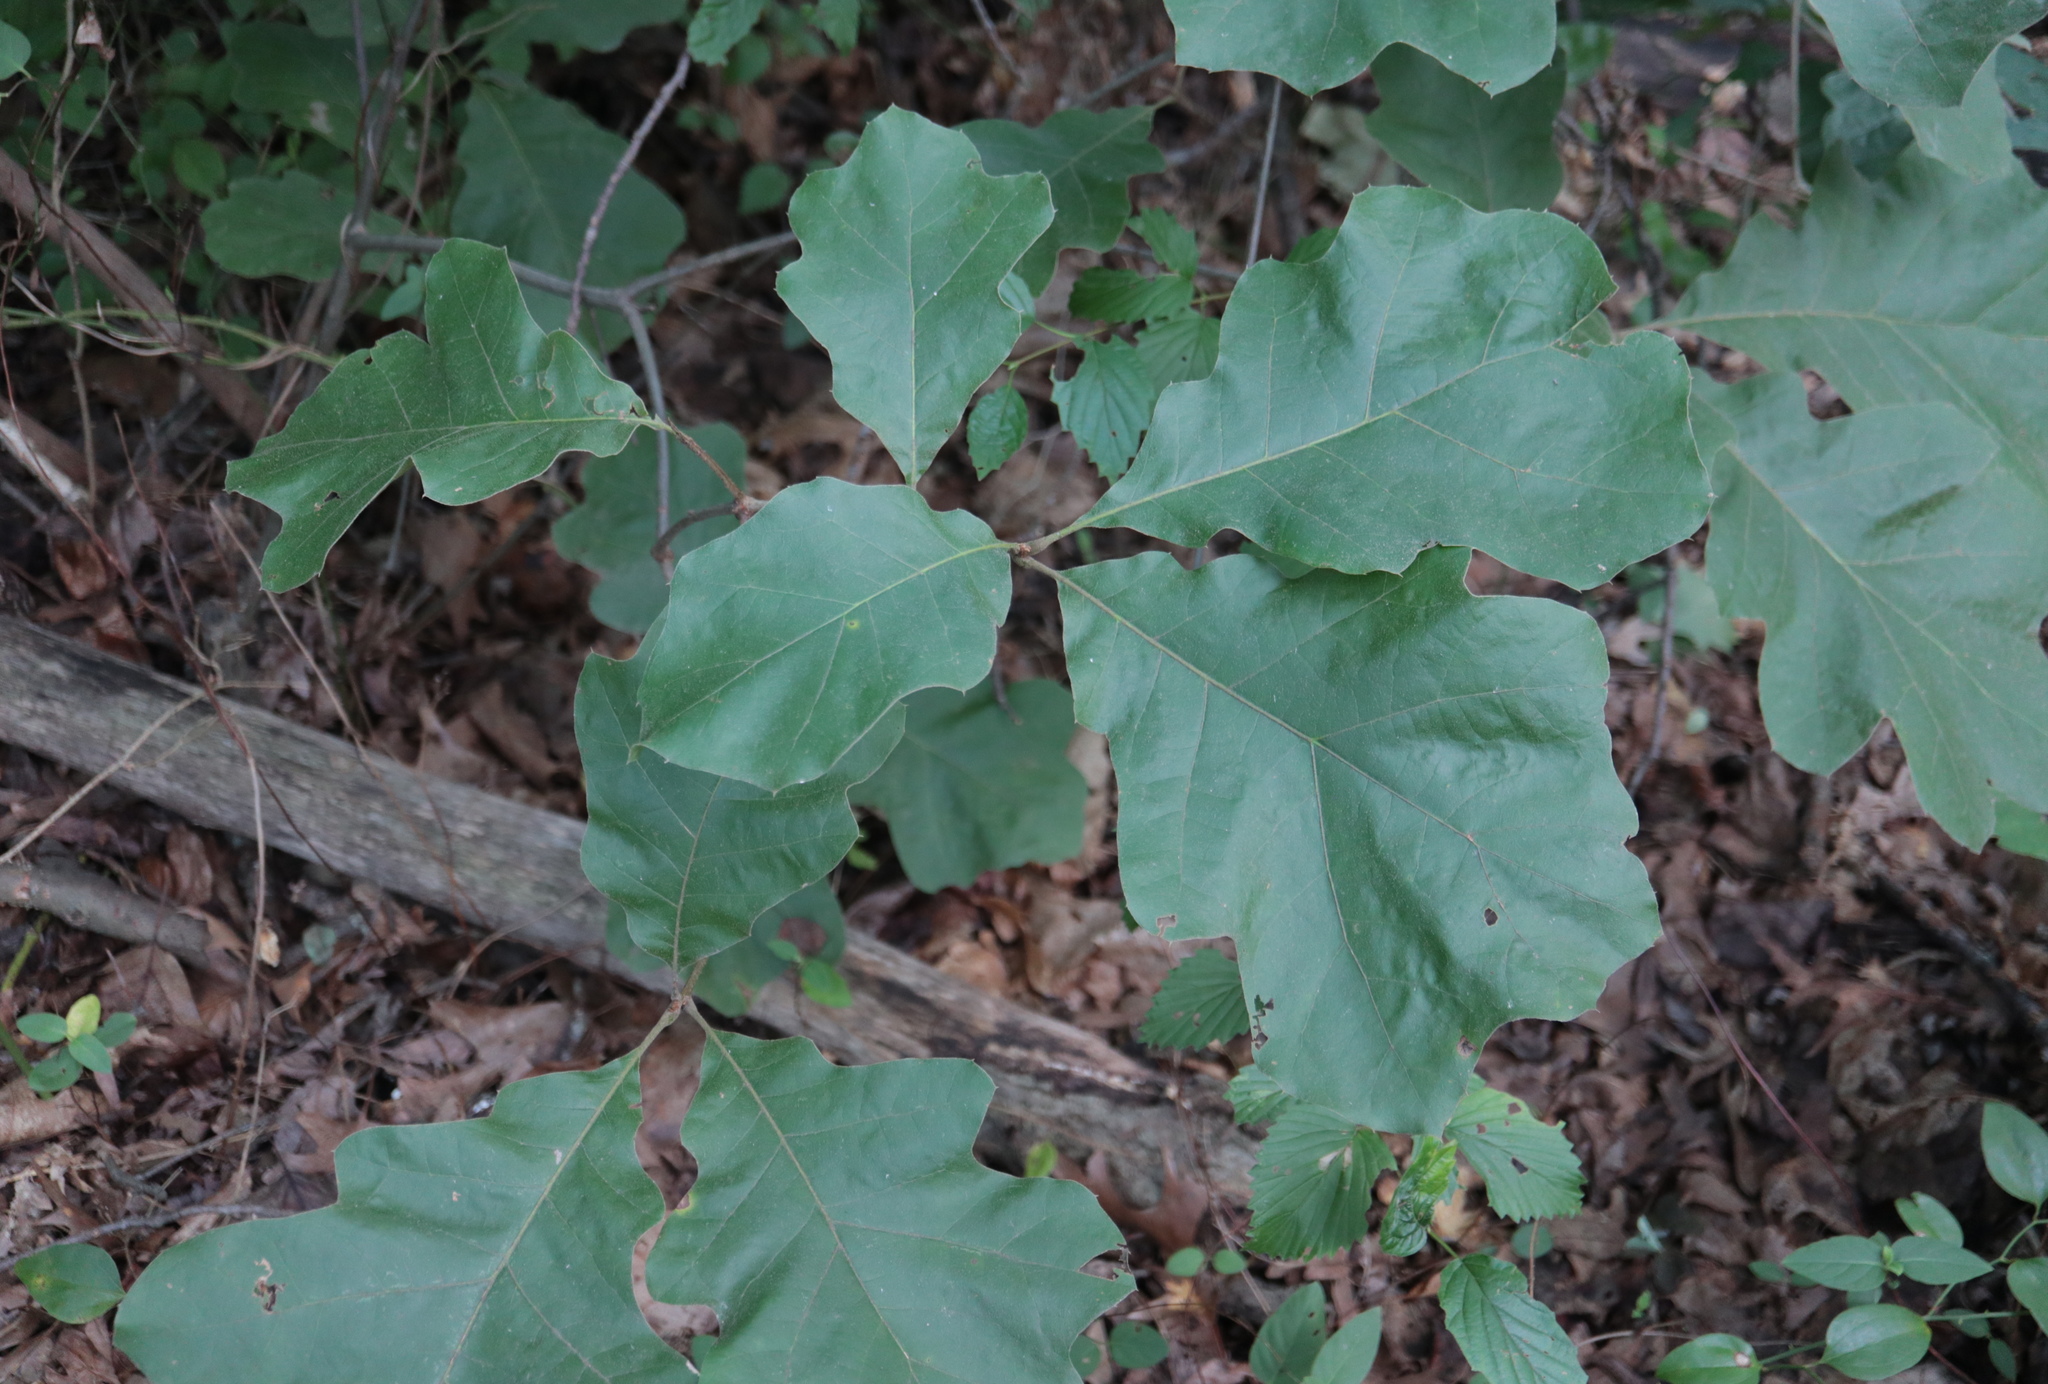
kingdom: Plantae
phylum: Tracheophyta
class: Magnoliopsida
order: Fagales
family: Fagaceae
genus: Quercus
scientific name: Quercus velutina
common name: Black oak
